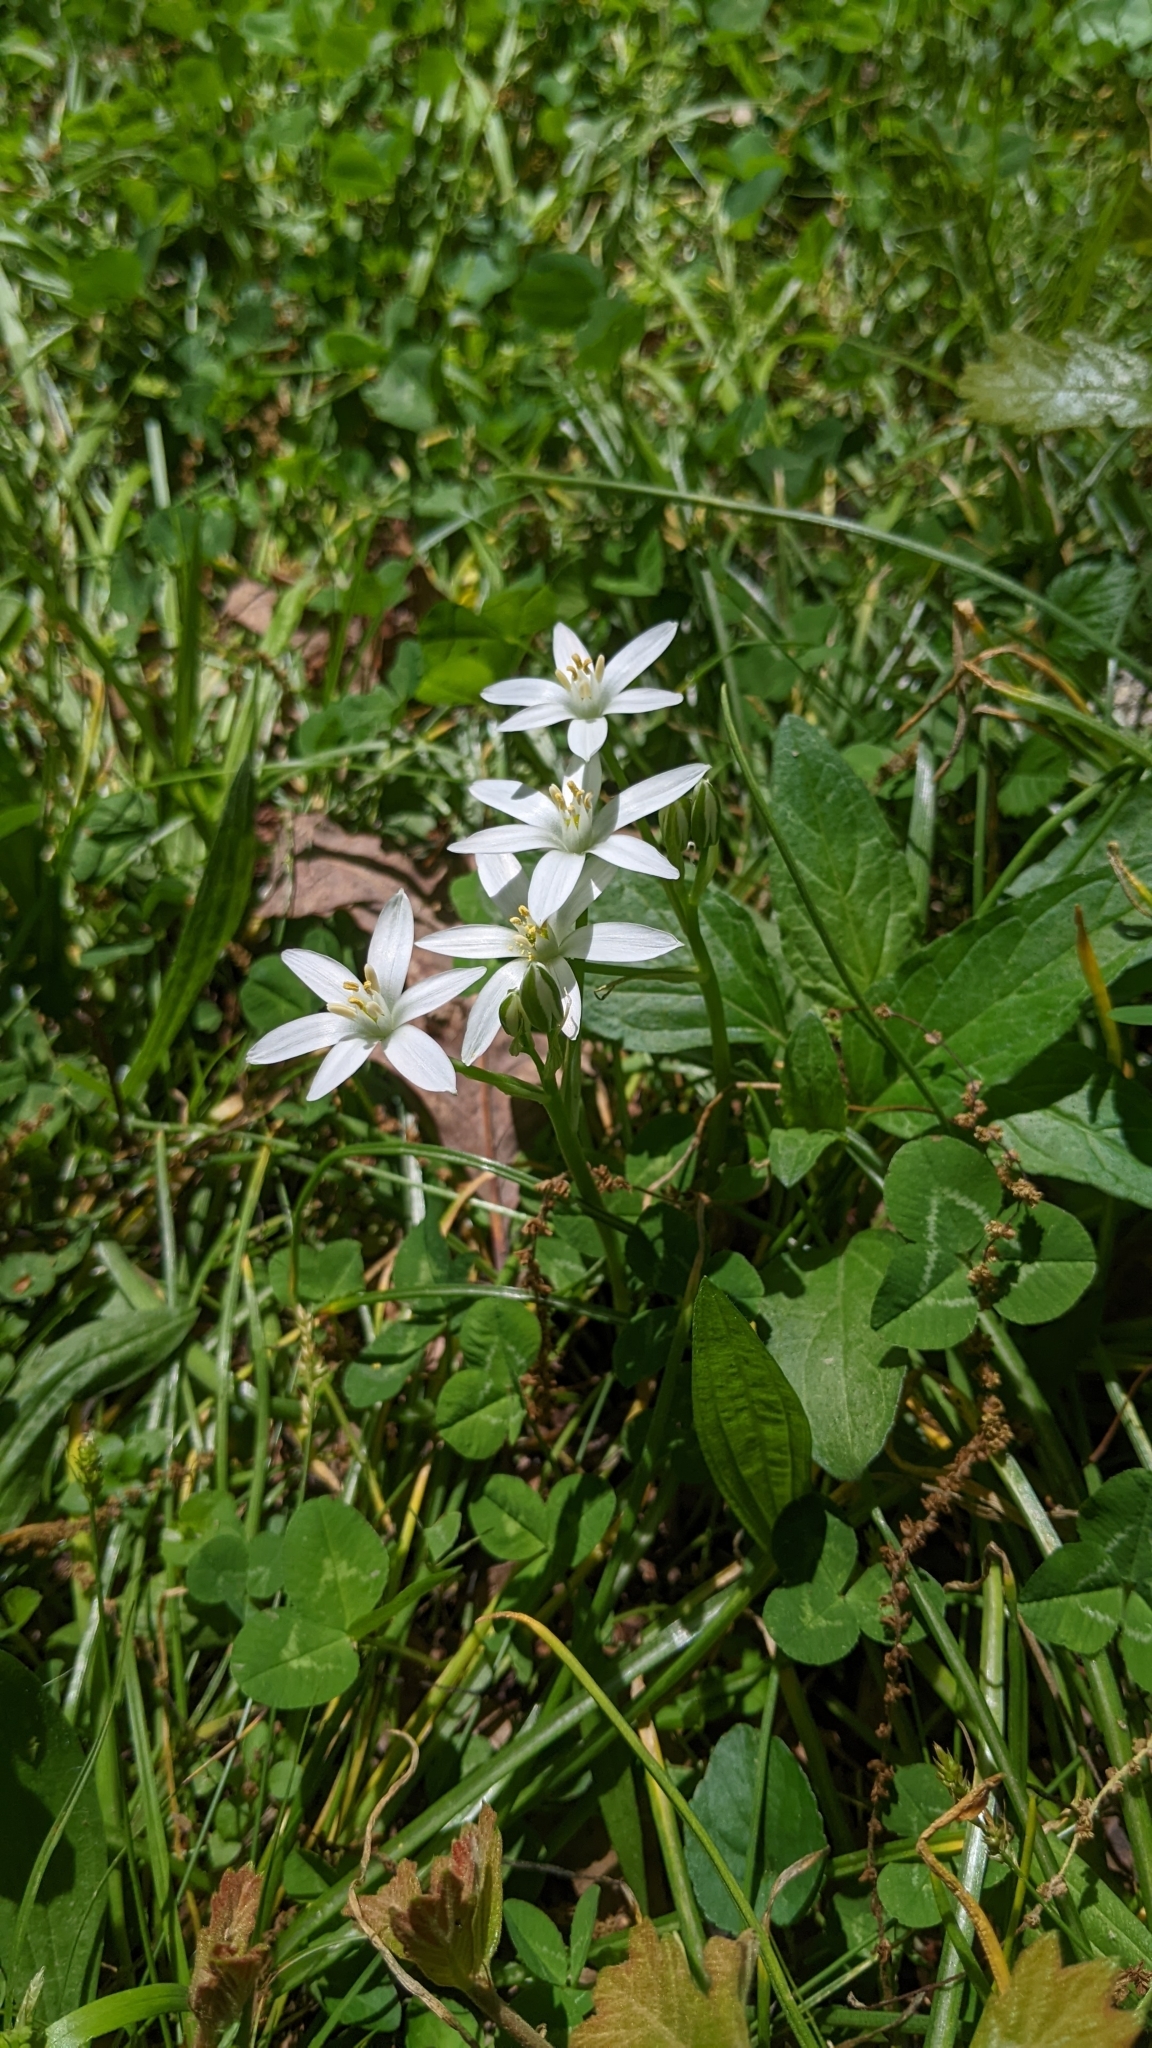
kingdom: Plantae
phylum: Tracheophyta
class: Liliopsida
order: Asparagales
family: Asparagaceae
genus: Ornithogalum
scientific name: Ornithogalum umbellatum
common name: Garden star-of-bethlehem
